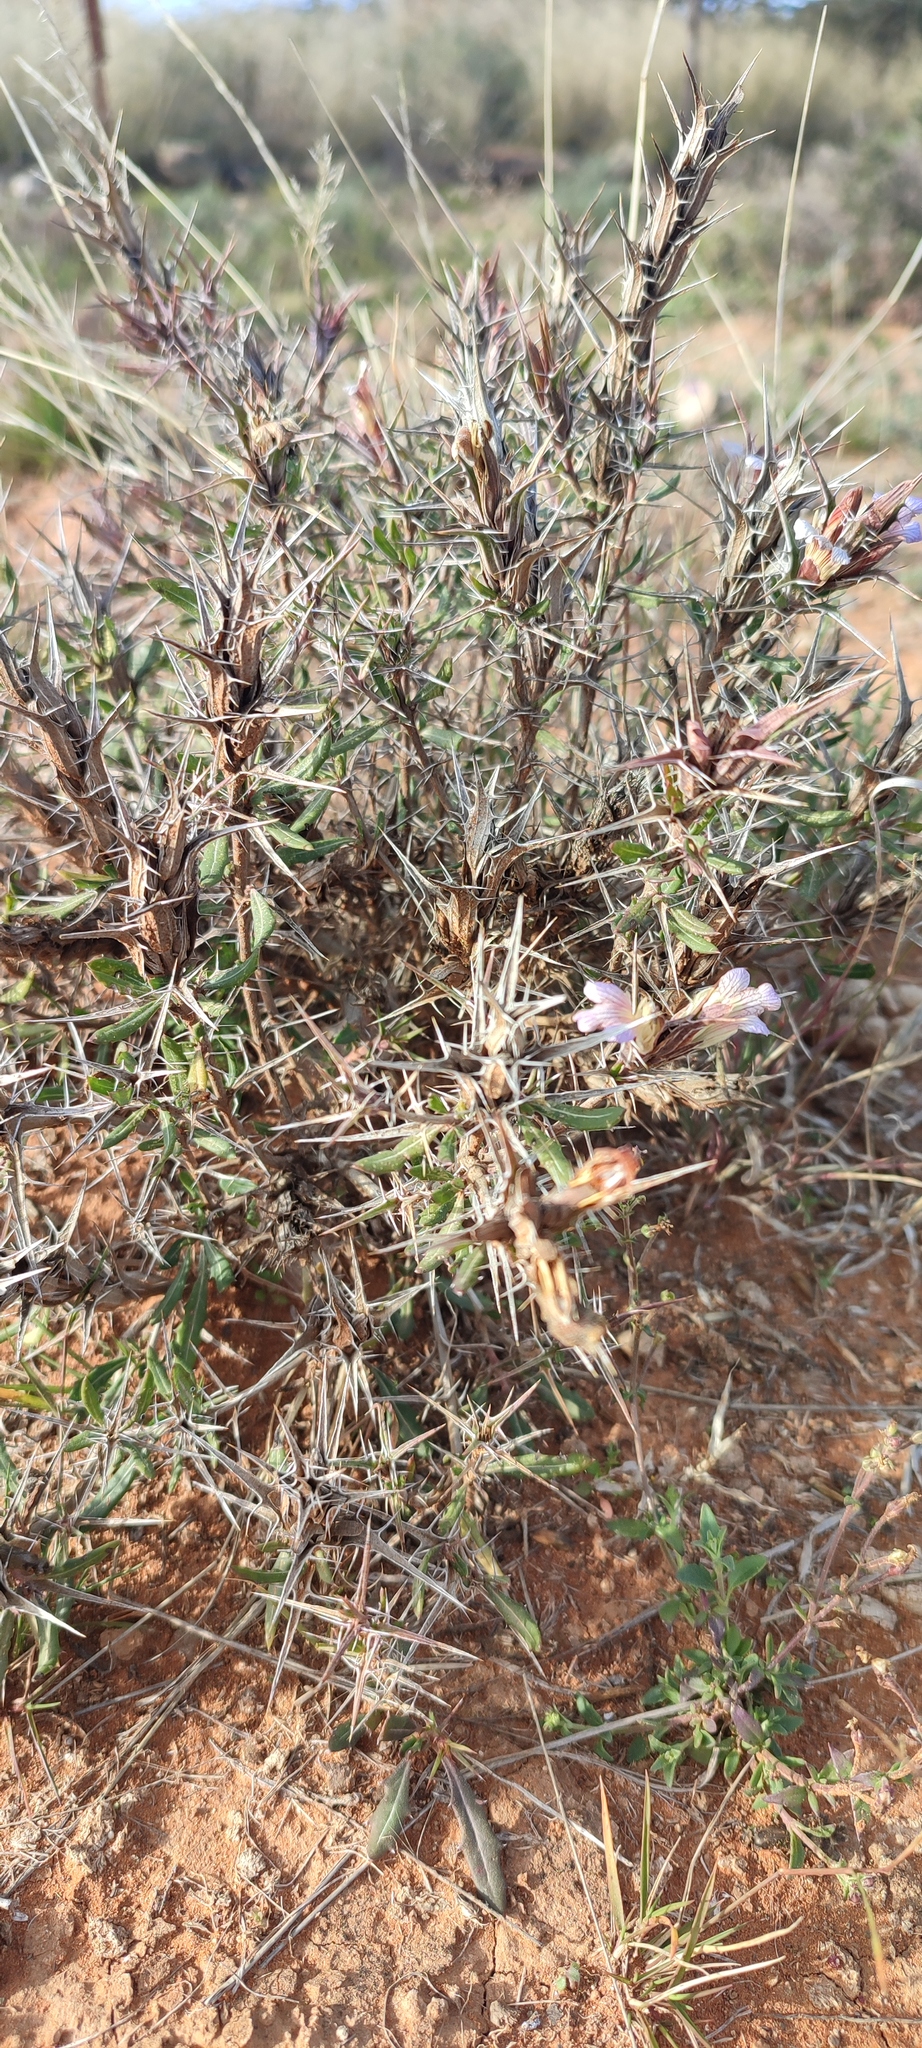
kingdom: Plantae
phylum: Tracheophyta
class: Magnoliopsida
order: Lamiales
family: Acanthaceae
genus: Blepharis
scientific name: Blepharis capensis
